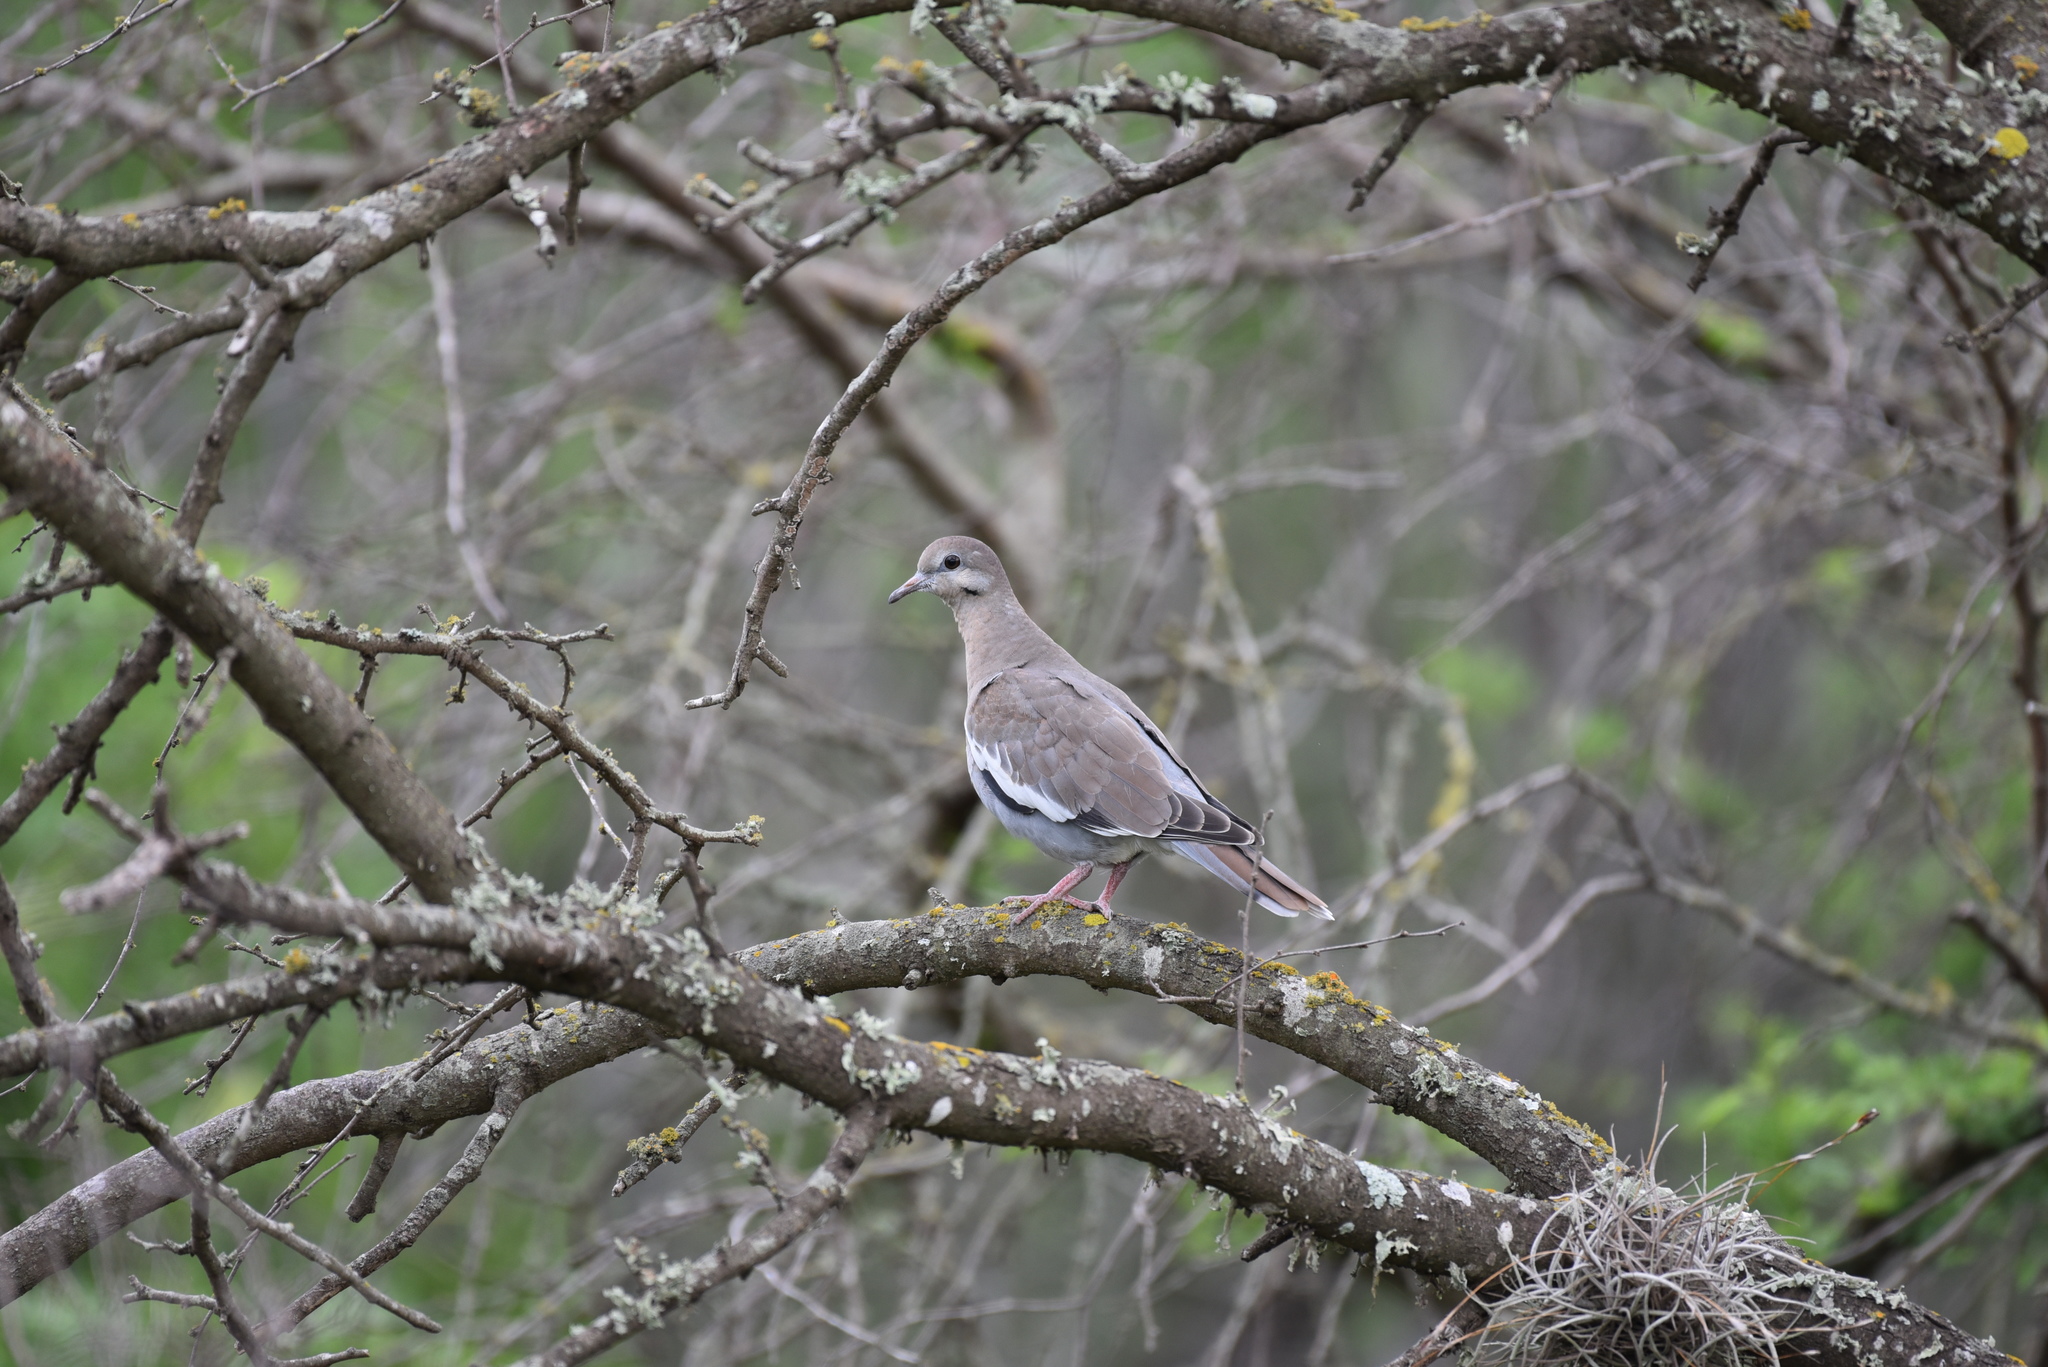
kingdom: Animalia
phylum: Chordata
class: Aves
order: Columbiformes
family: Columbidae
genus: Zenaida
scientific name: Zenaida asiatica
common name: White-winged dove
